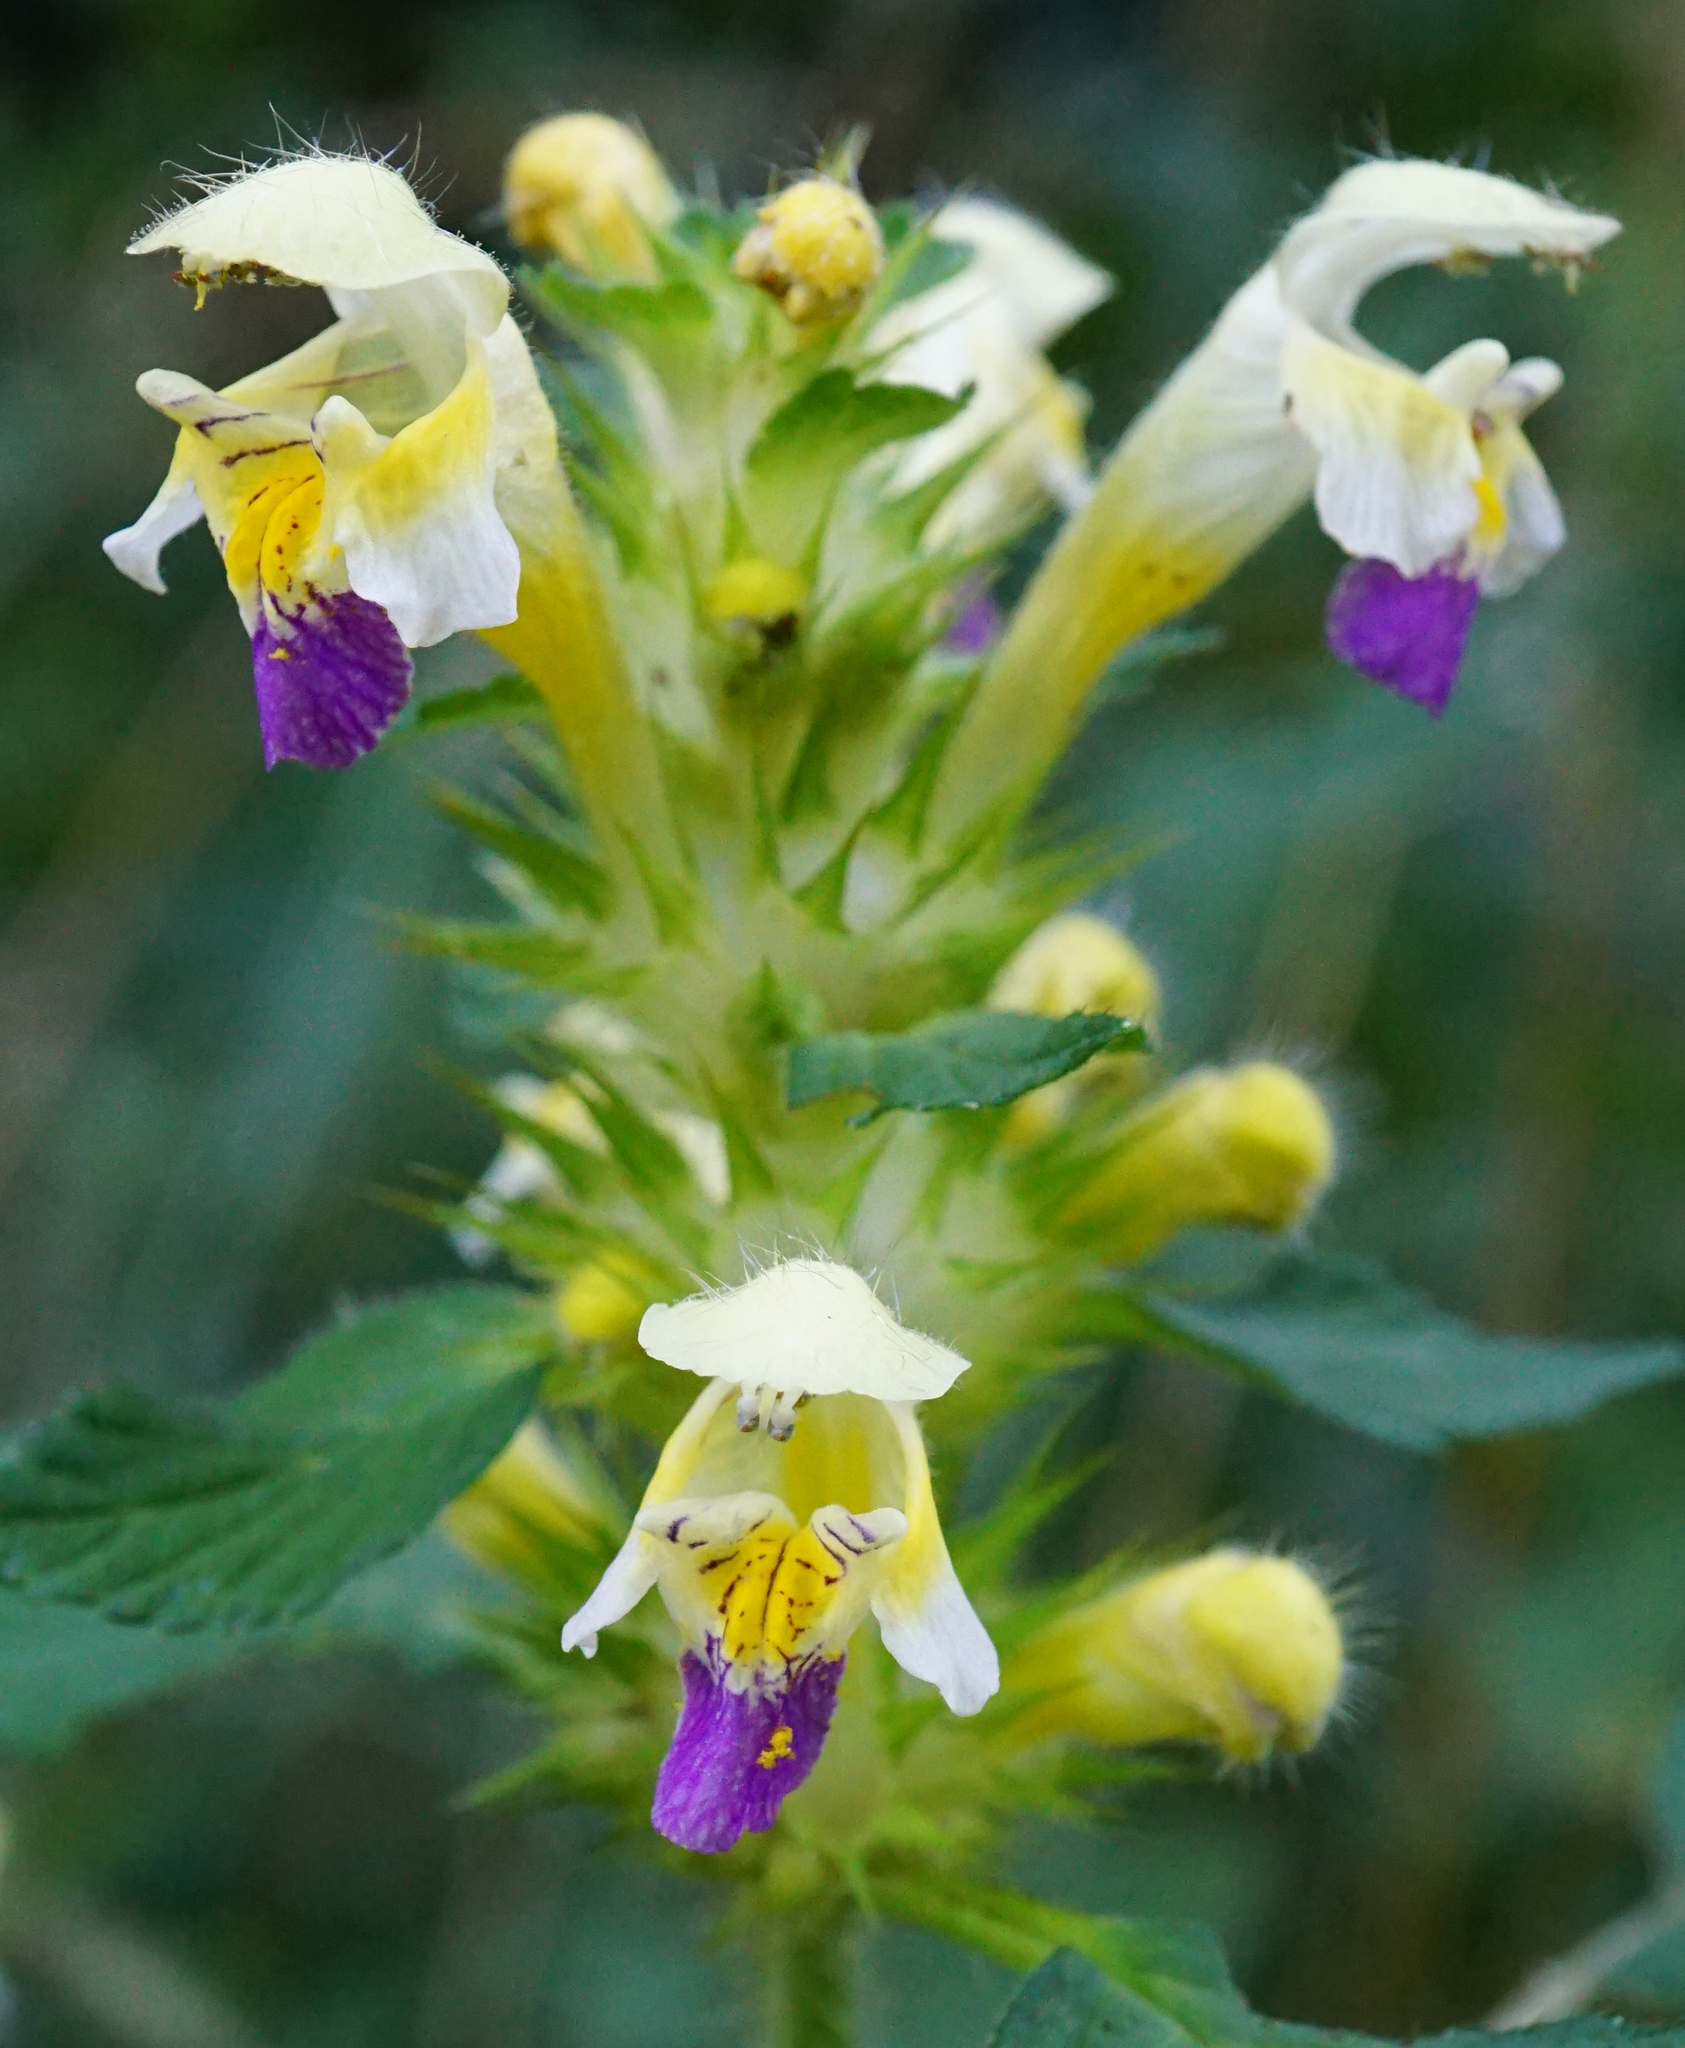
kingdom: Plantae
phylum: Tracheophyta
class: Magnoliopsida
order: Lamiales
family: Lamiaceae
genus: Galeopsis
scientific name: Galeopsis speciosa
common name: Large-flowered hemp-nettle
